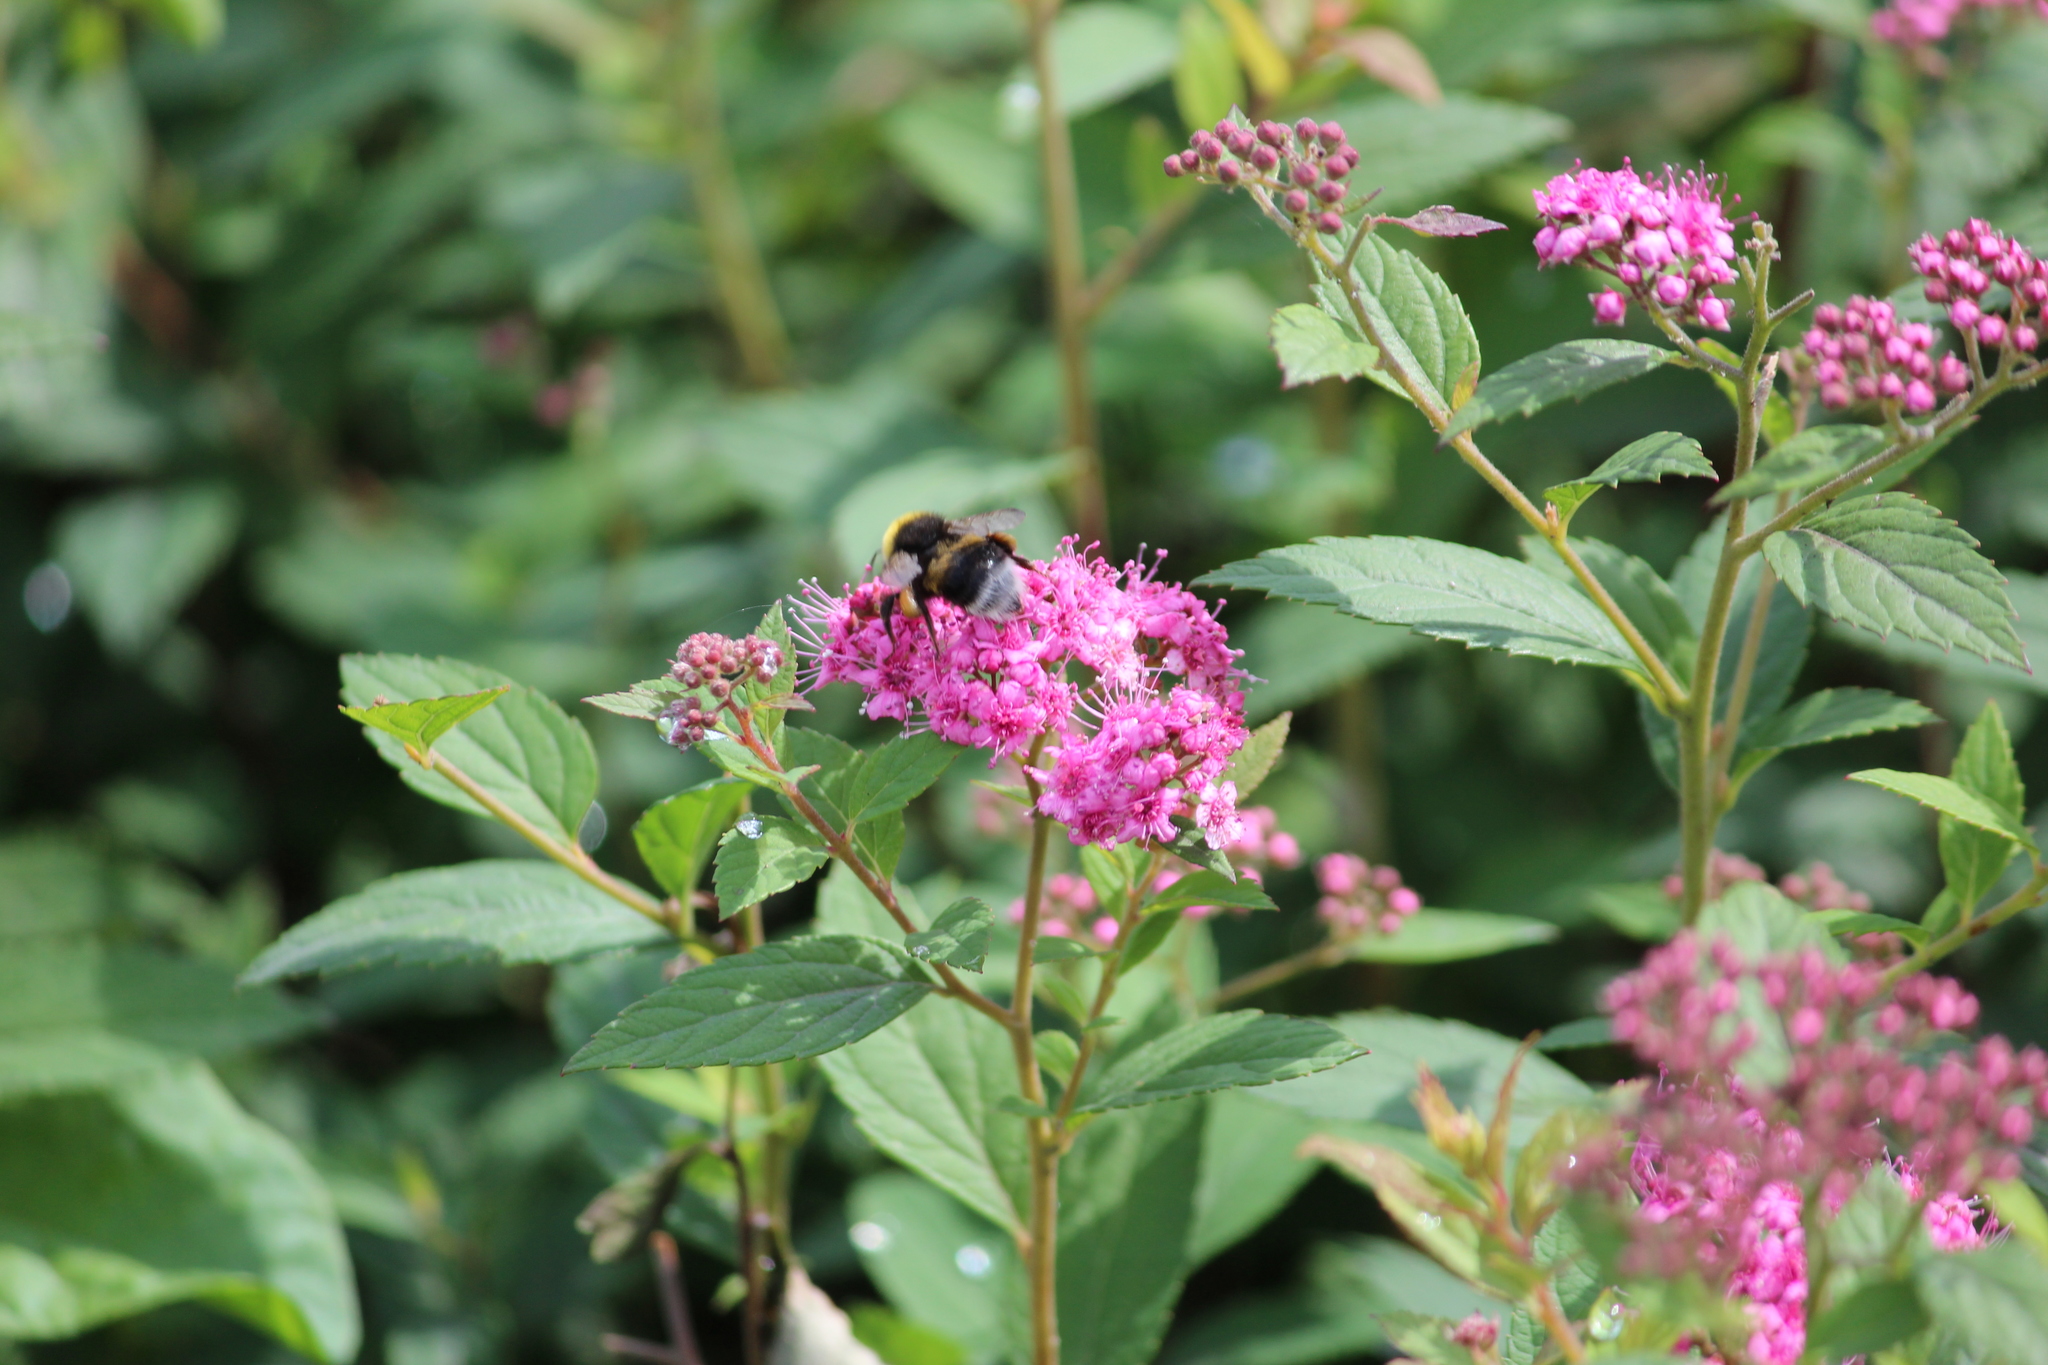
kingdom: Animalia
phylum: Arthropoda
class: Insecta
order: Hymenoptera
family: Apidae
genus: Bombus
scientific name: Bombus
